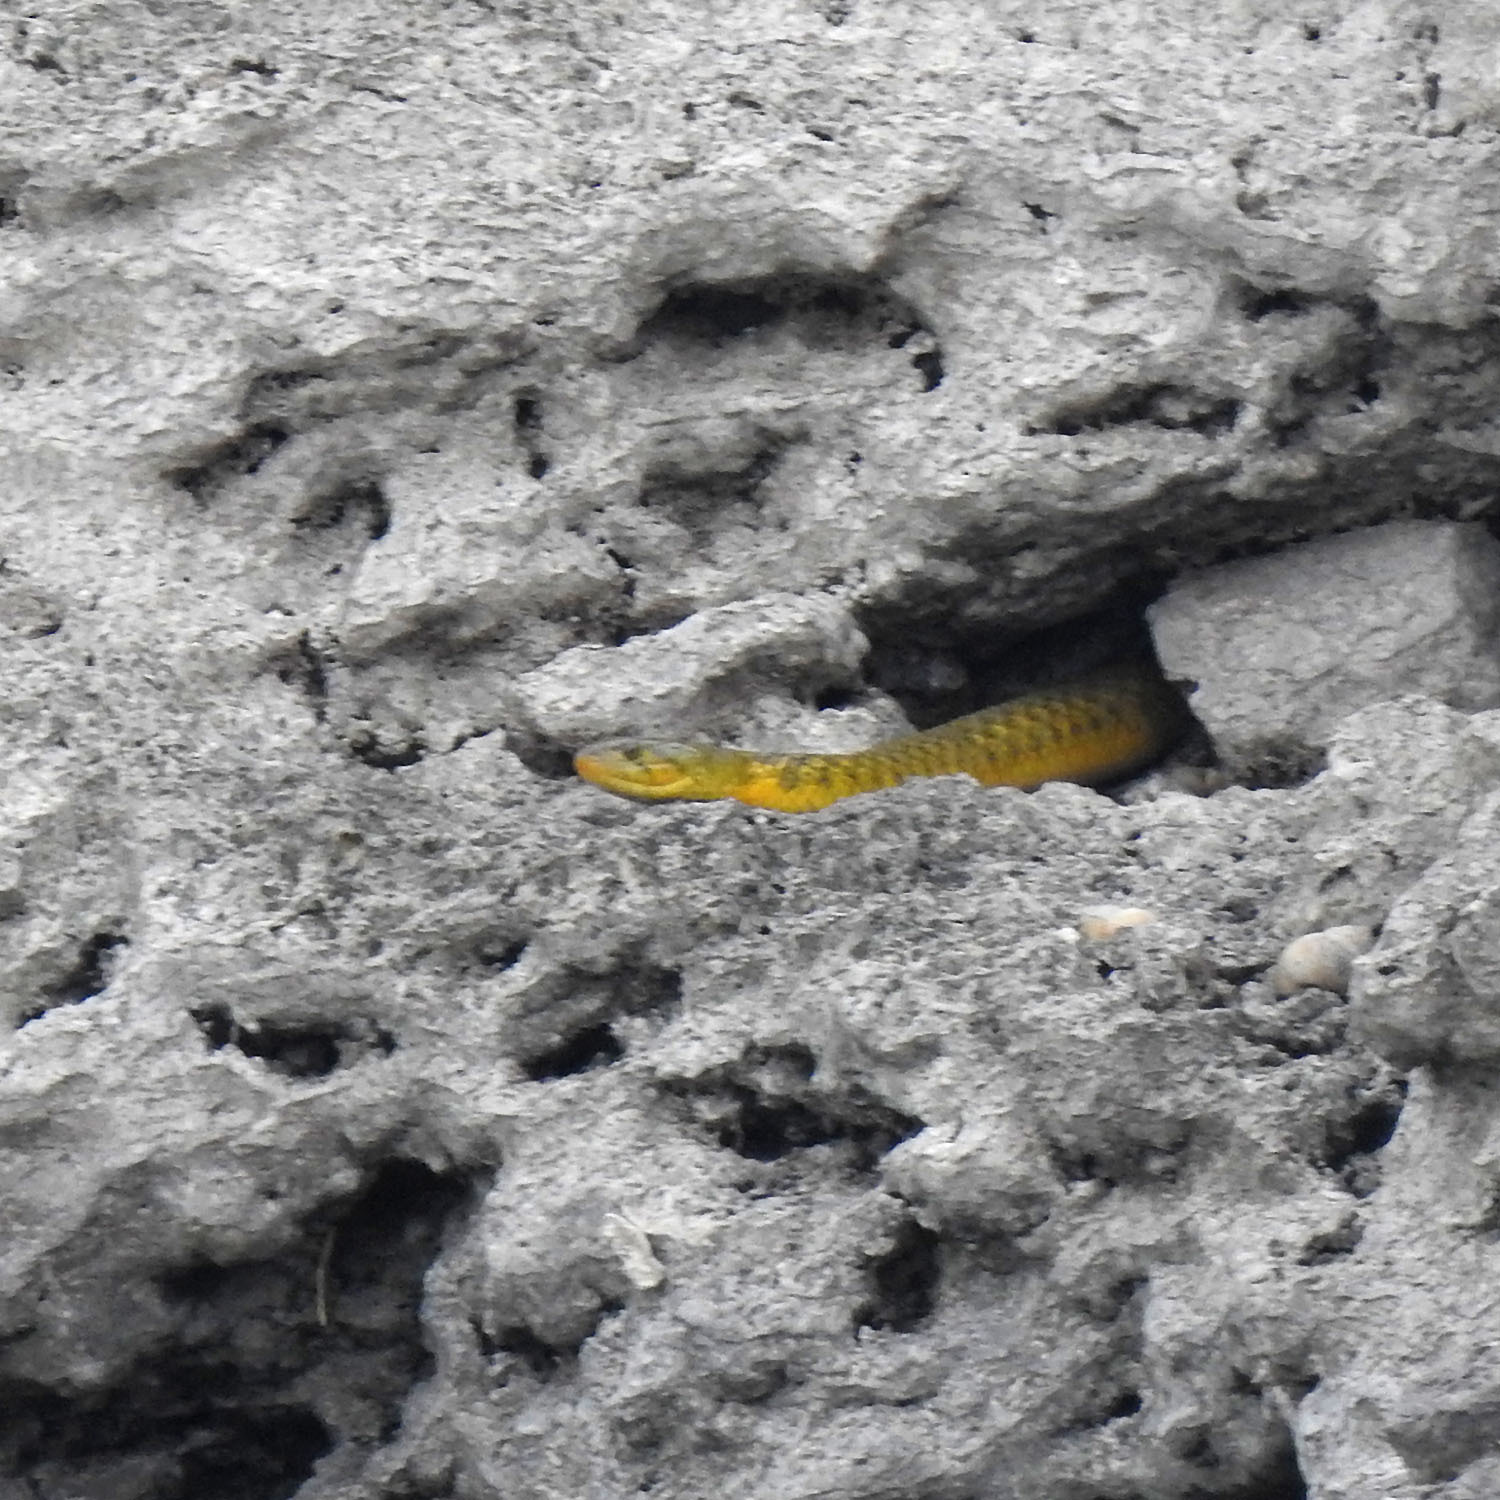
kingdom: Animalia
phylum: Chordata
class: Squamata
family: Colubridae
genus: Fowlea
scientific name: Fowlea piscator
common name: Asiatic water snake
